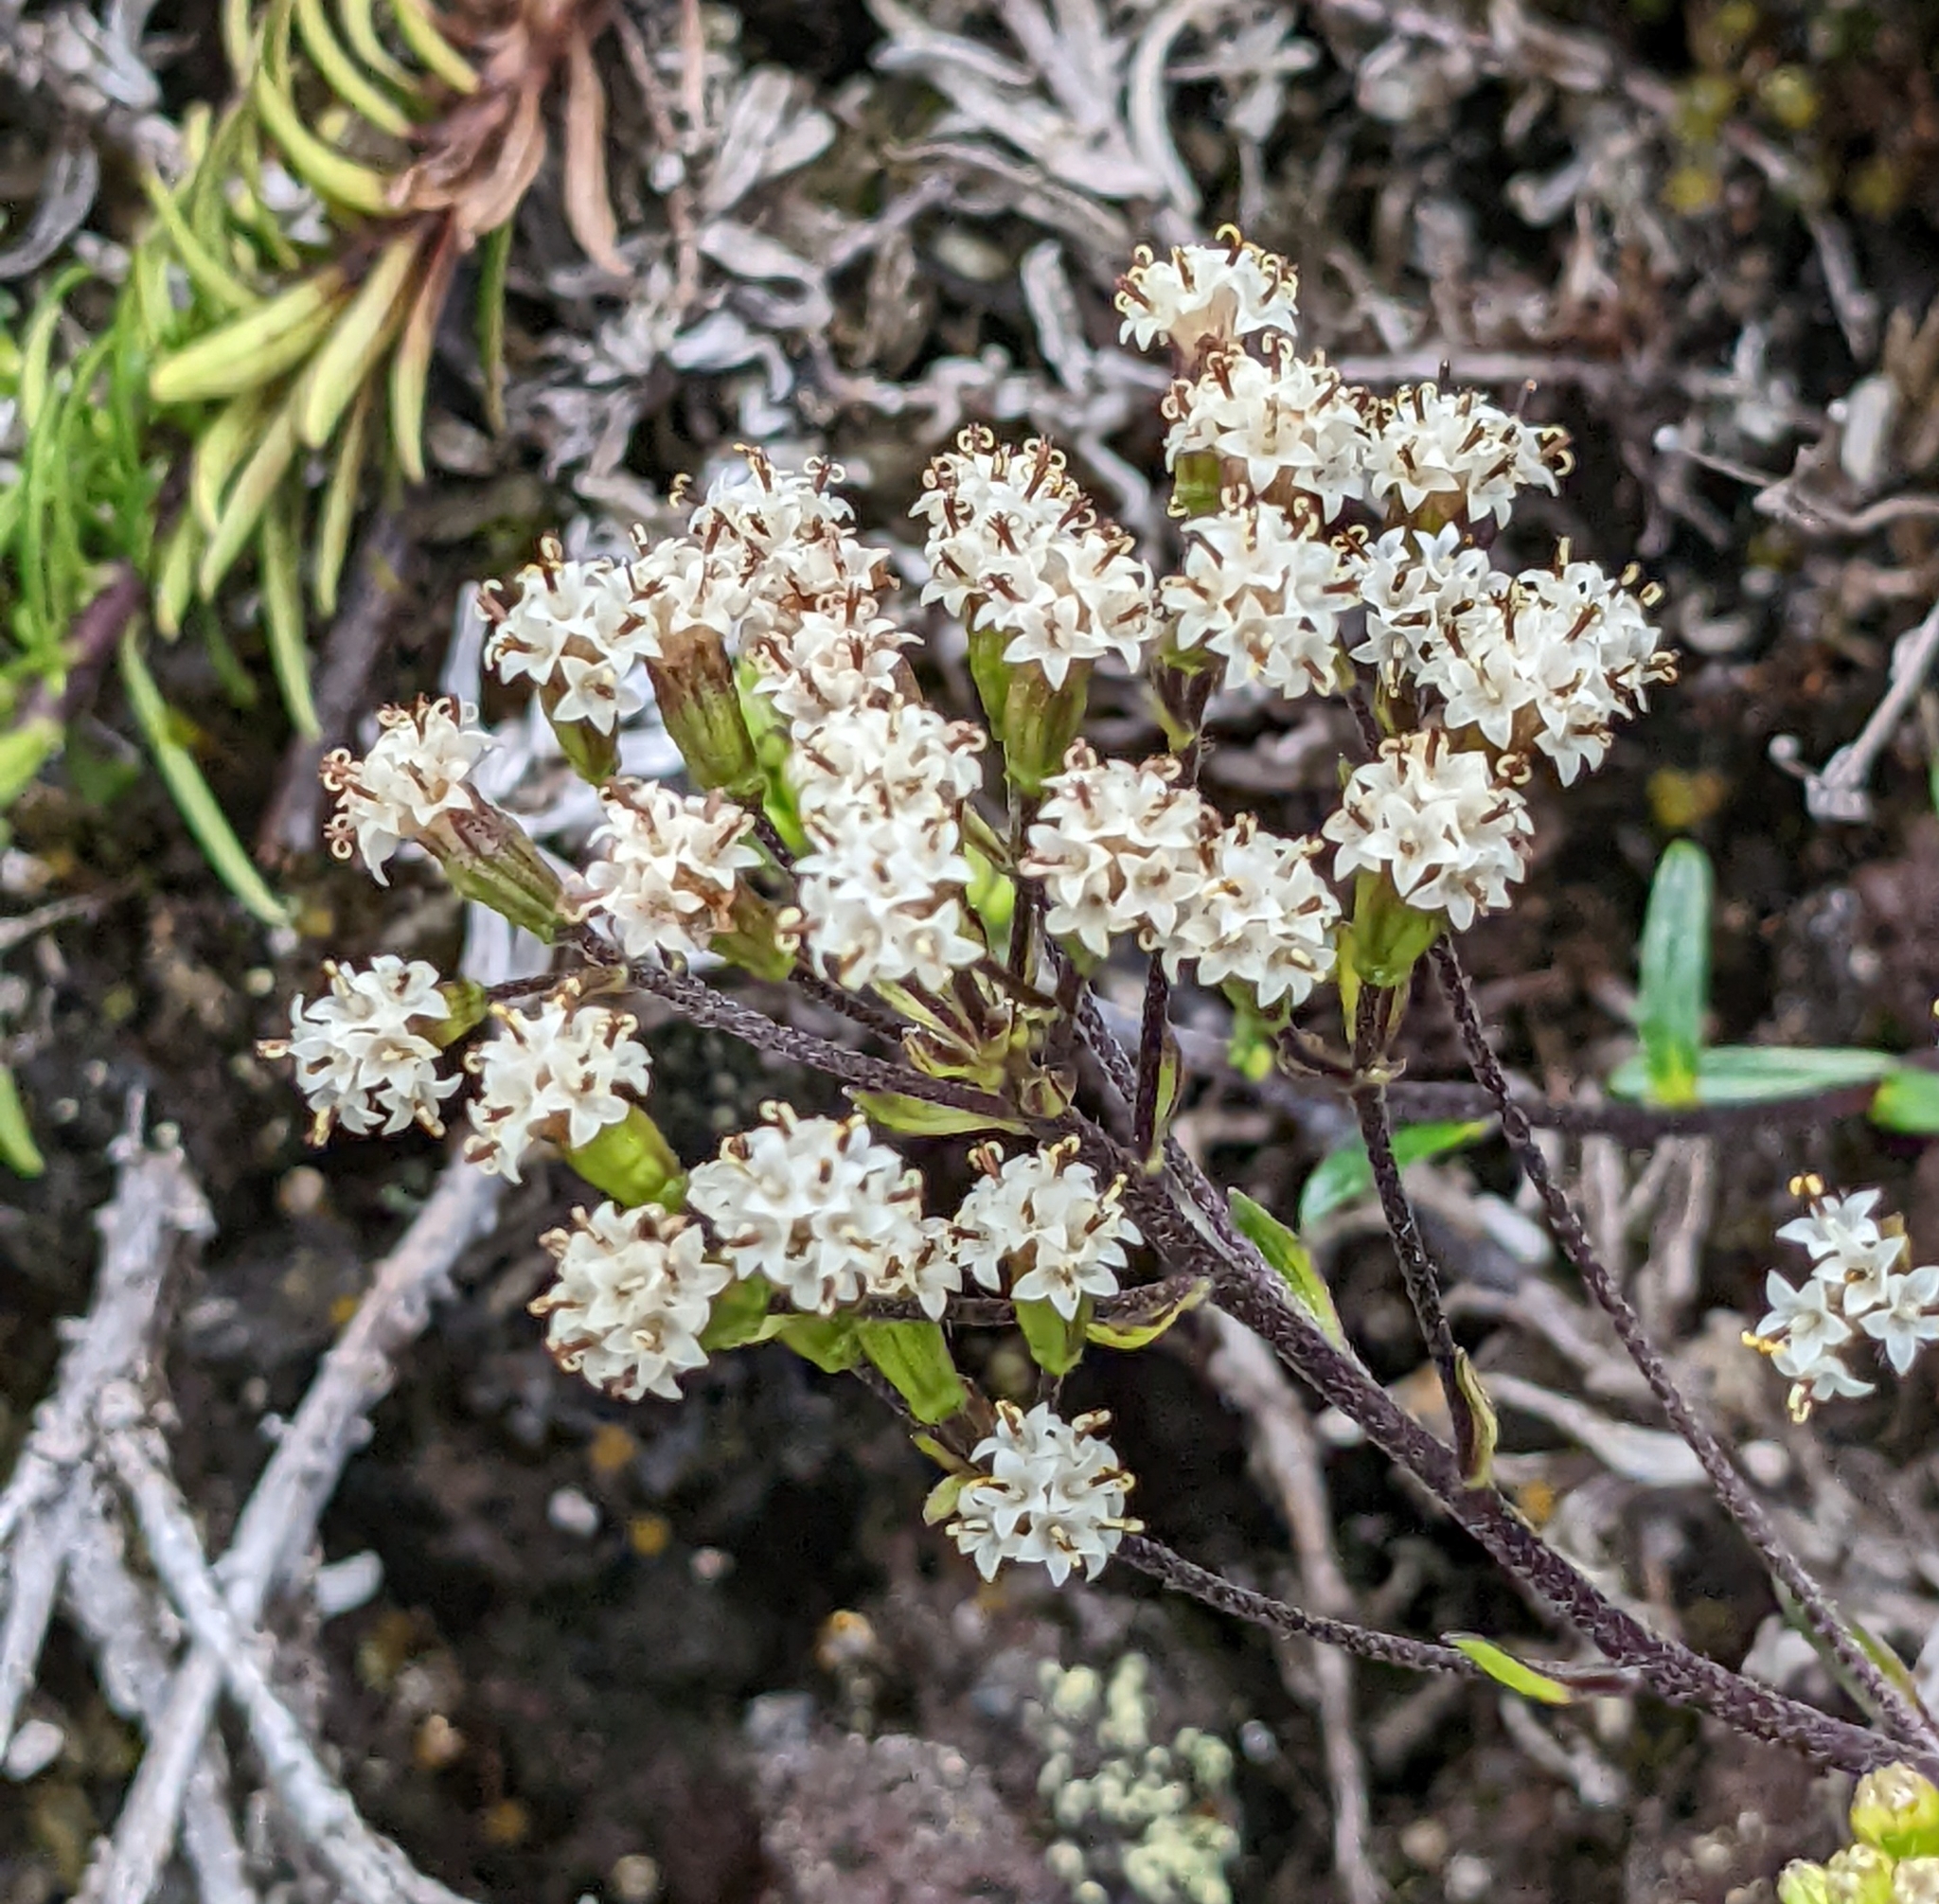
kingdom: Plantae
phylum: Tracheophyta
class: Magnoliopsida
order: Asterales
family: Asteraceae
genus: Dubautia
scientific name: Dubautia scabra
